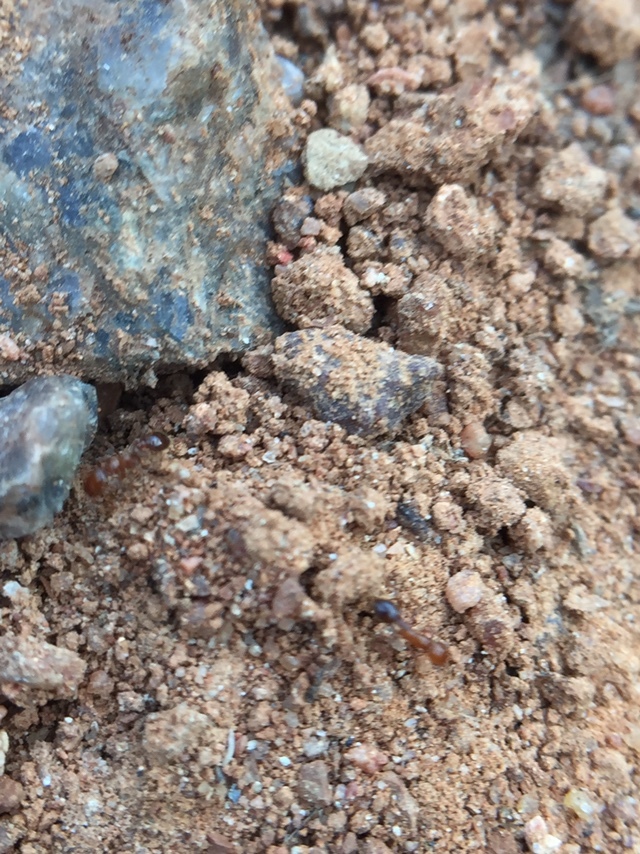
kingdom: Animalia
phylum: Arthropoda
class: Insecta
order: Hymenoptera
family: Formicidae
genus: Solenopsis
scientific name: Solenopsis geminata
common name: Tropical fire ant
